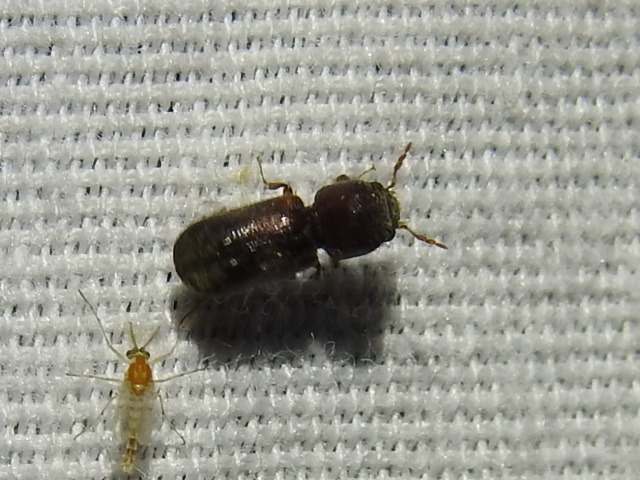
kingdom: Animalia
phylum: Arthropoda
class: Insecta
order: Coleoptera
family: Bostrichidae
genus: Xylobiops
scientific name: Xylobiops basilaris
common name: Red-shouldered bostrichid
